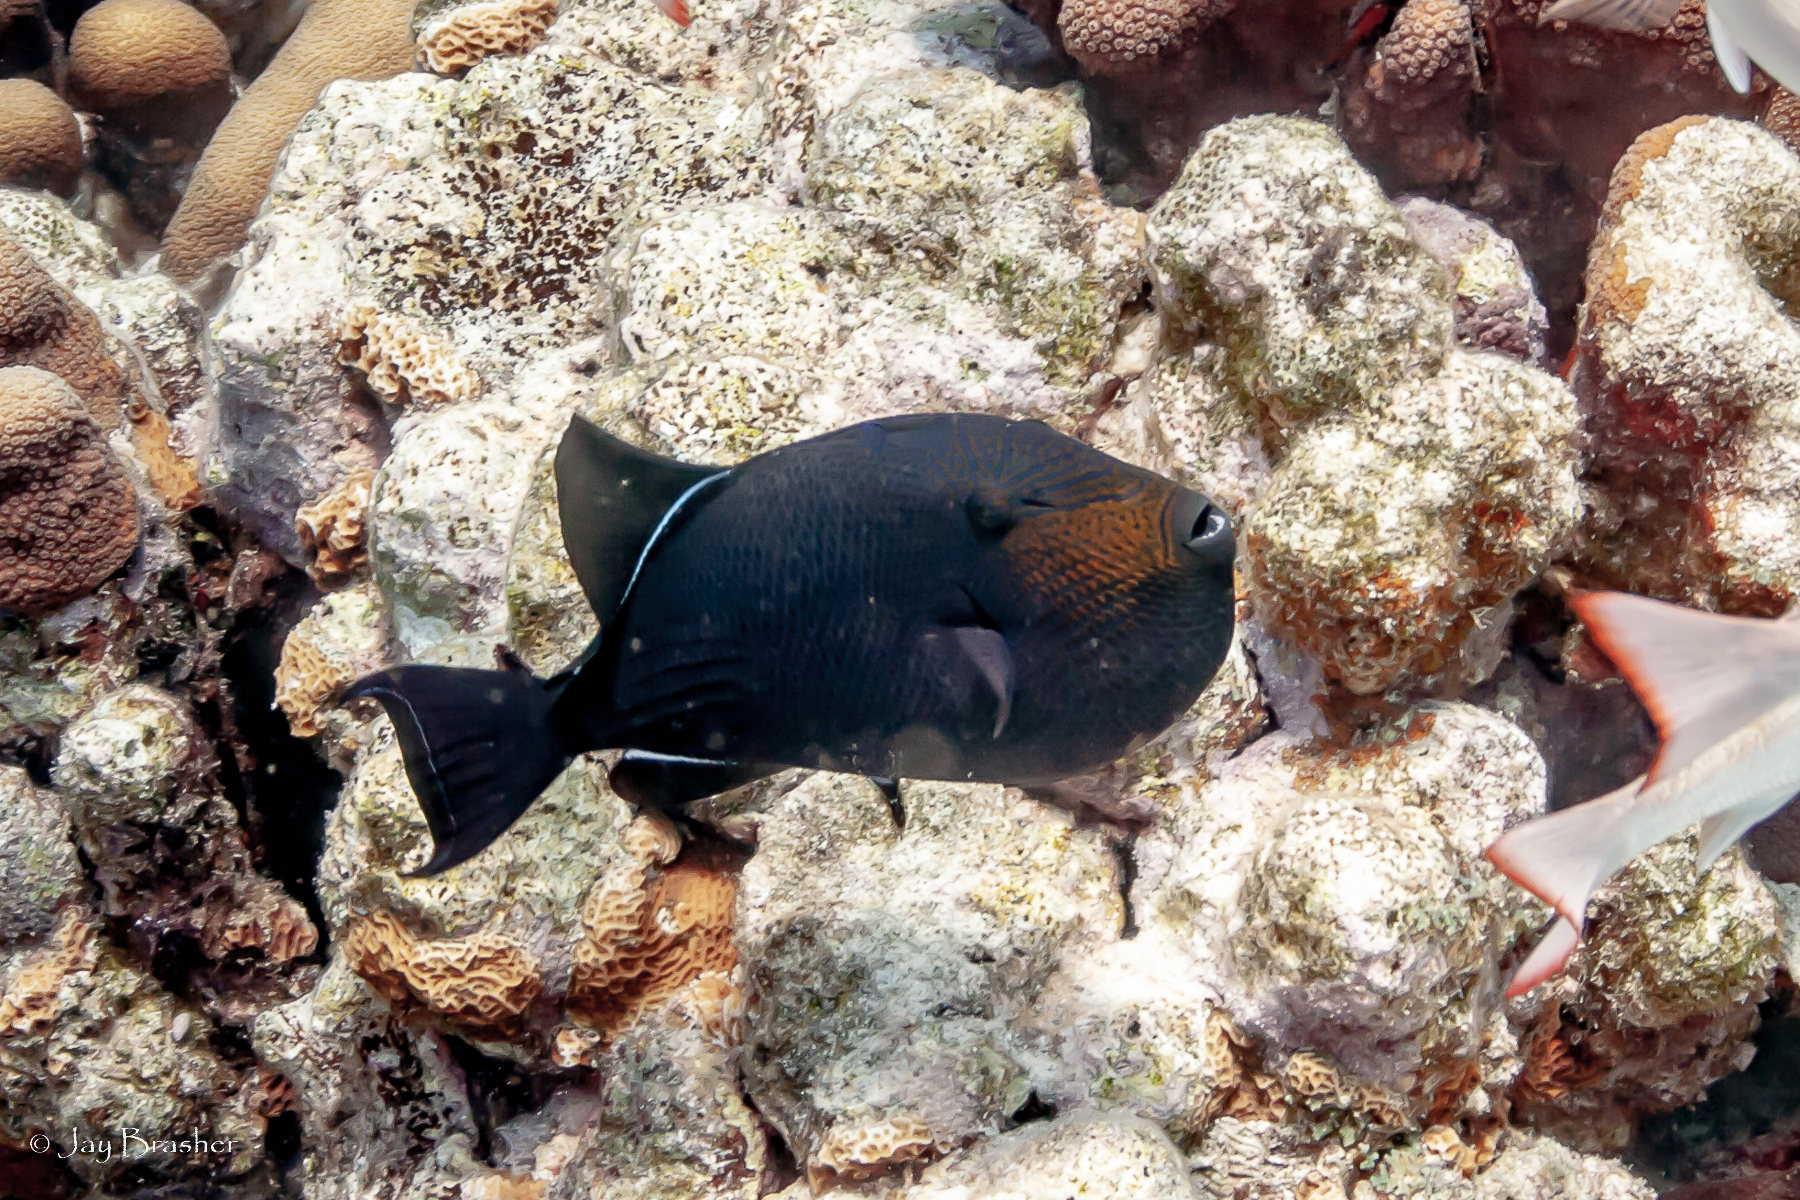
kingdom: Animalia
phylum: Chordata
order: Tetraodontiformes
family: Balistidae
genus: Melichthys
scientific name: Melichthys niger
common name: Black durgon
